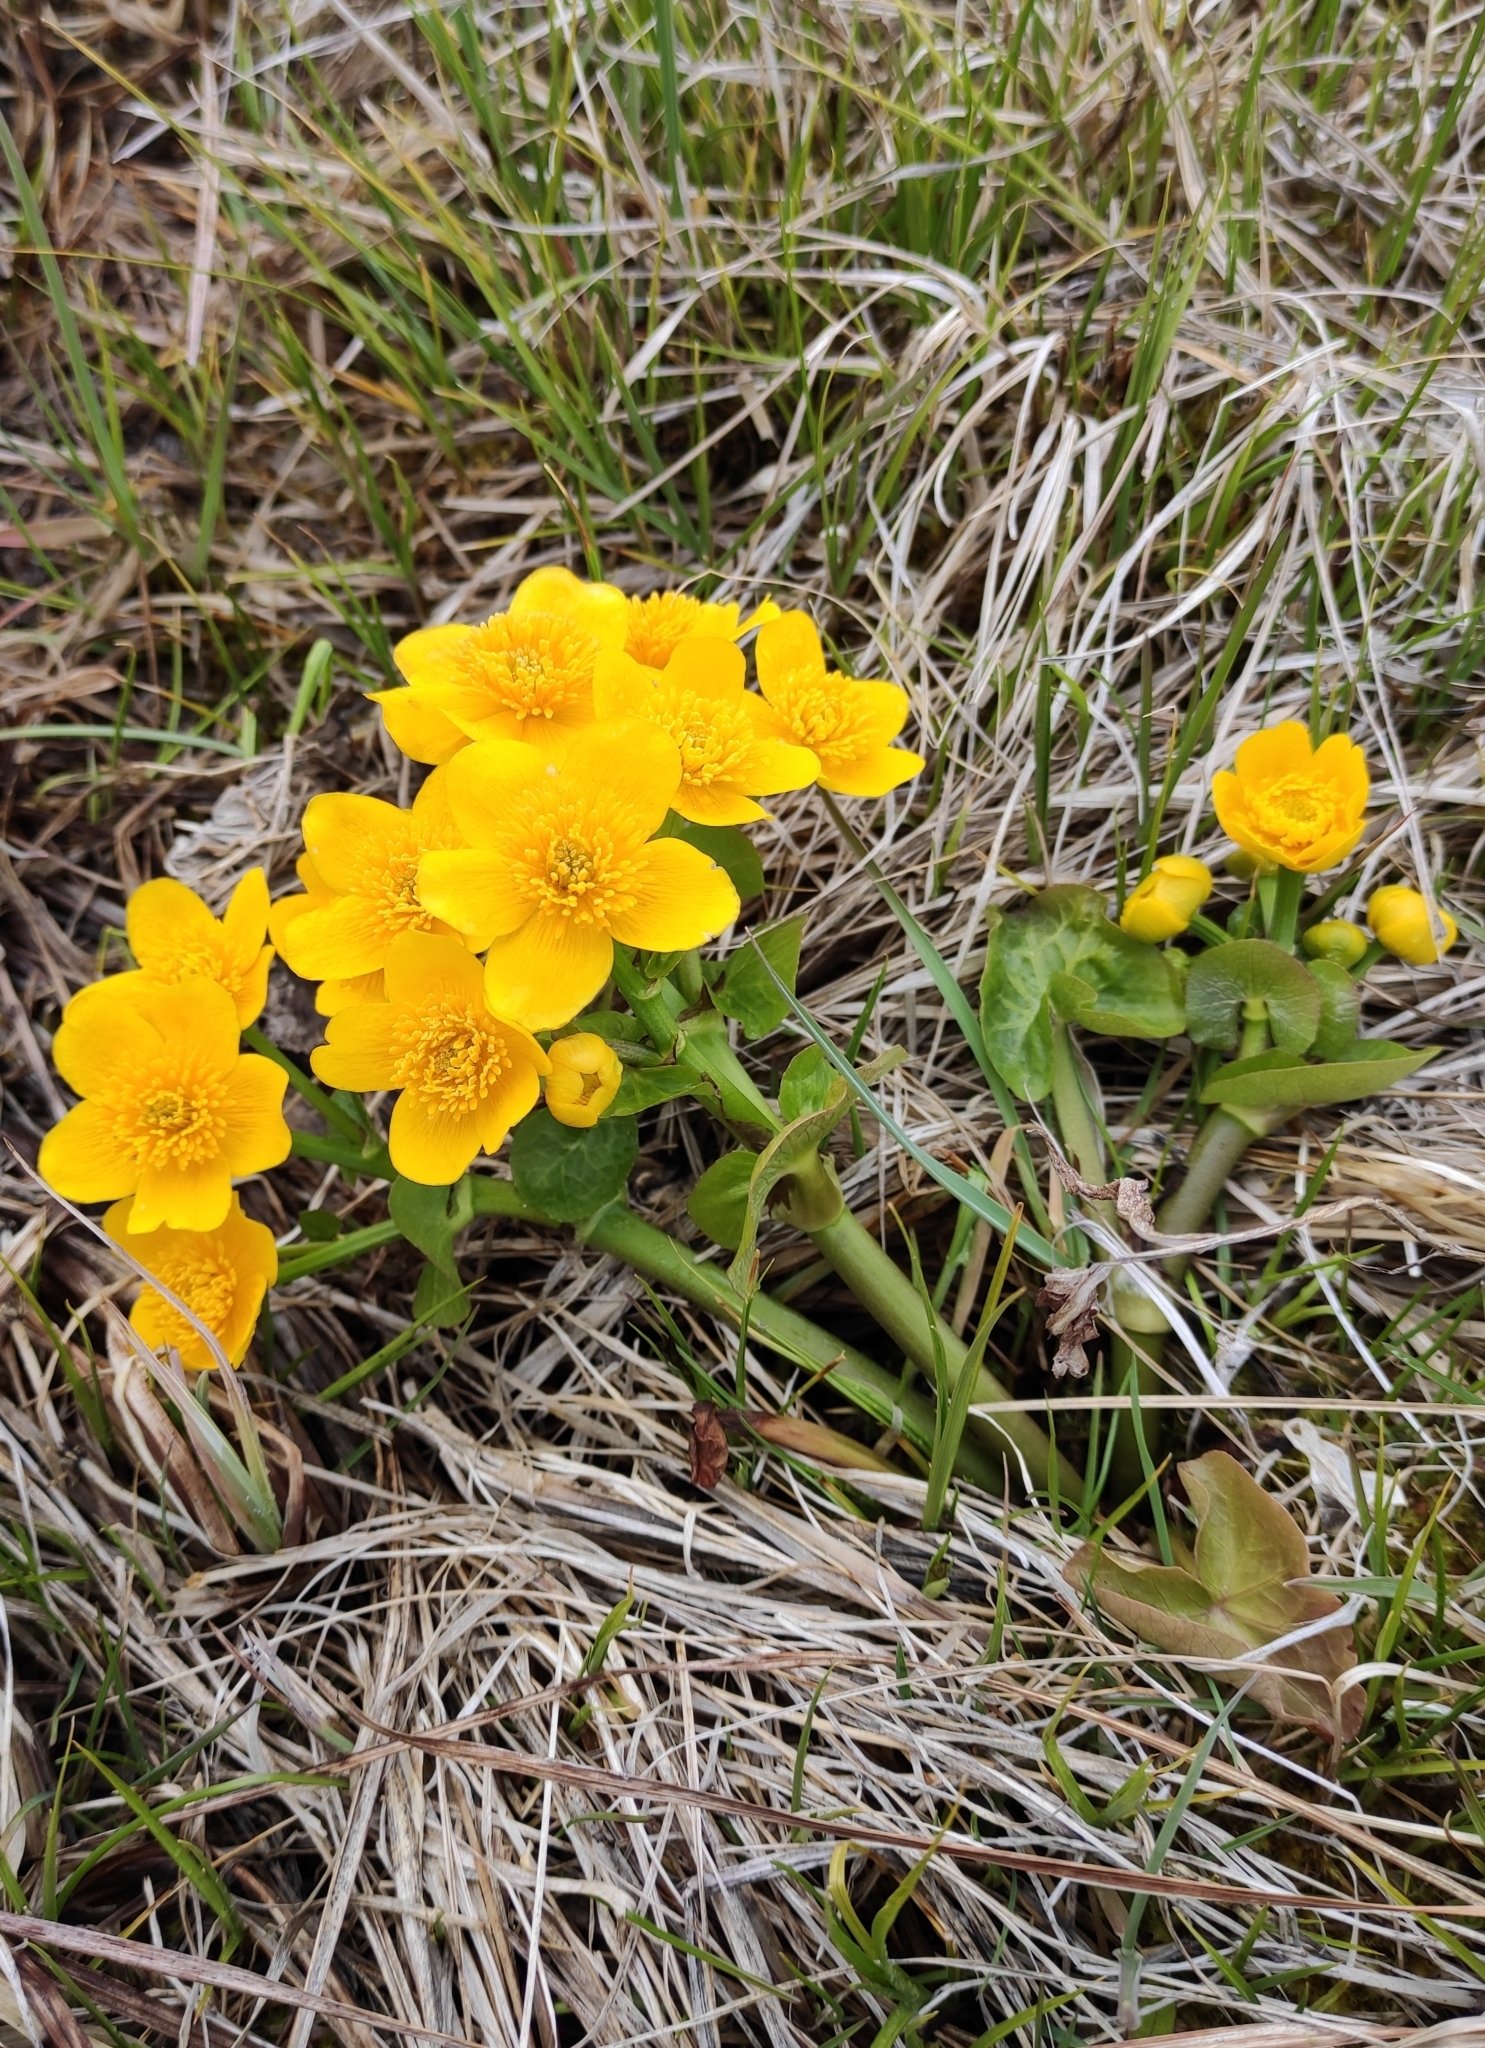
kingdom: Plantae
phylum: Tracheophyta
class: Magnoliopsida
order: Ranunculales
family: Ranunculaceae
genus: Caltha
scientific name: Caltha palustris
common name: Marsh marigold
